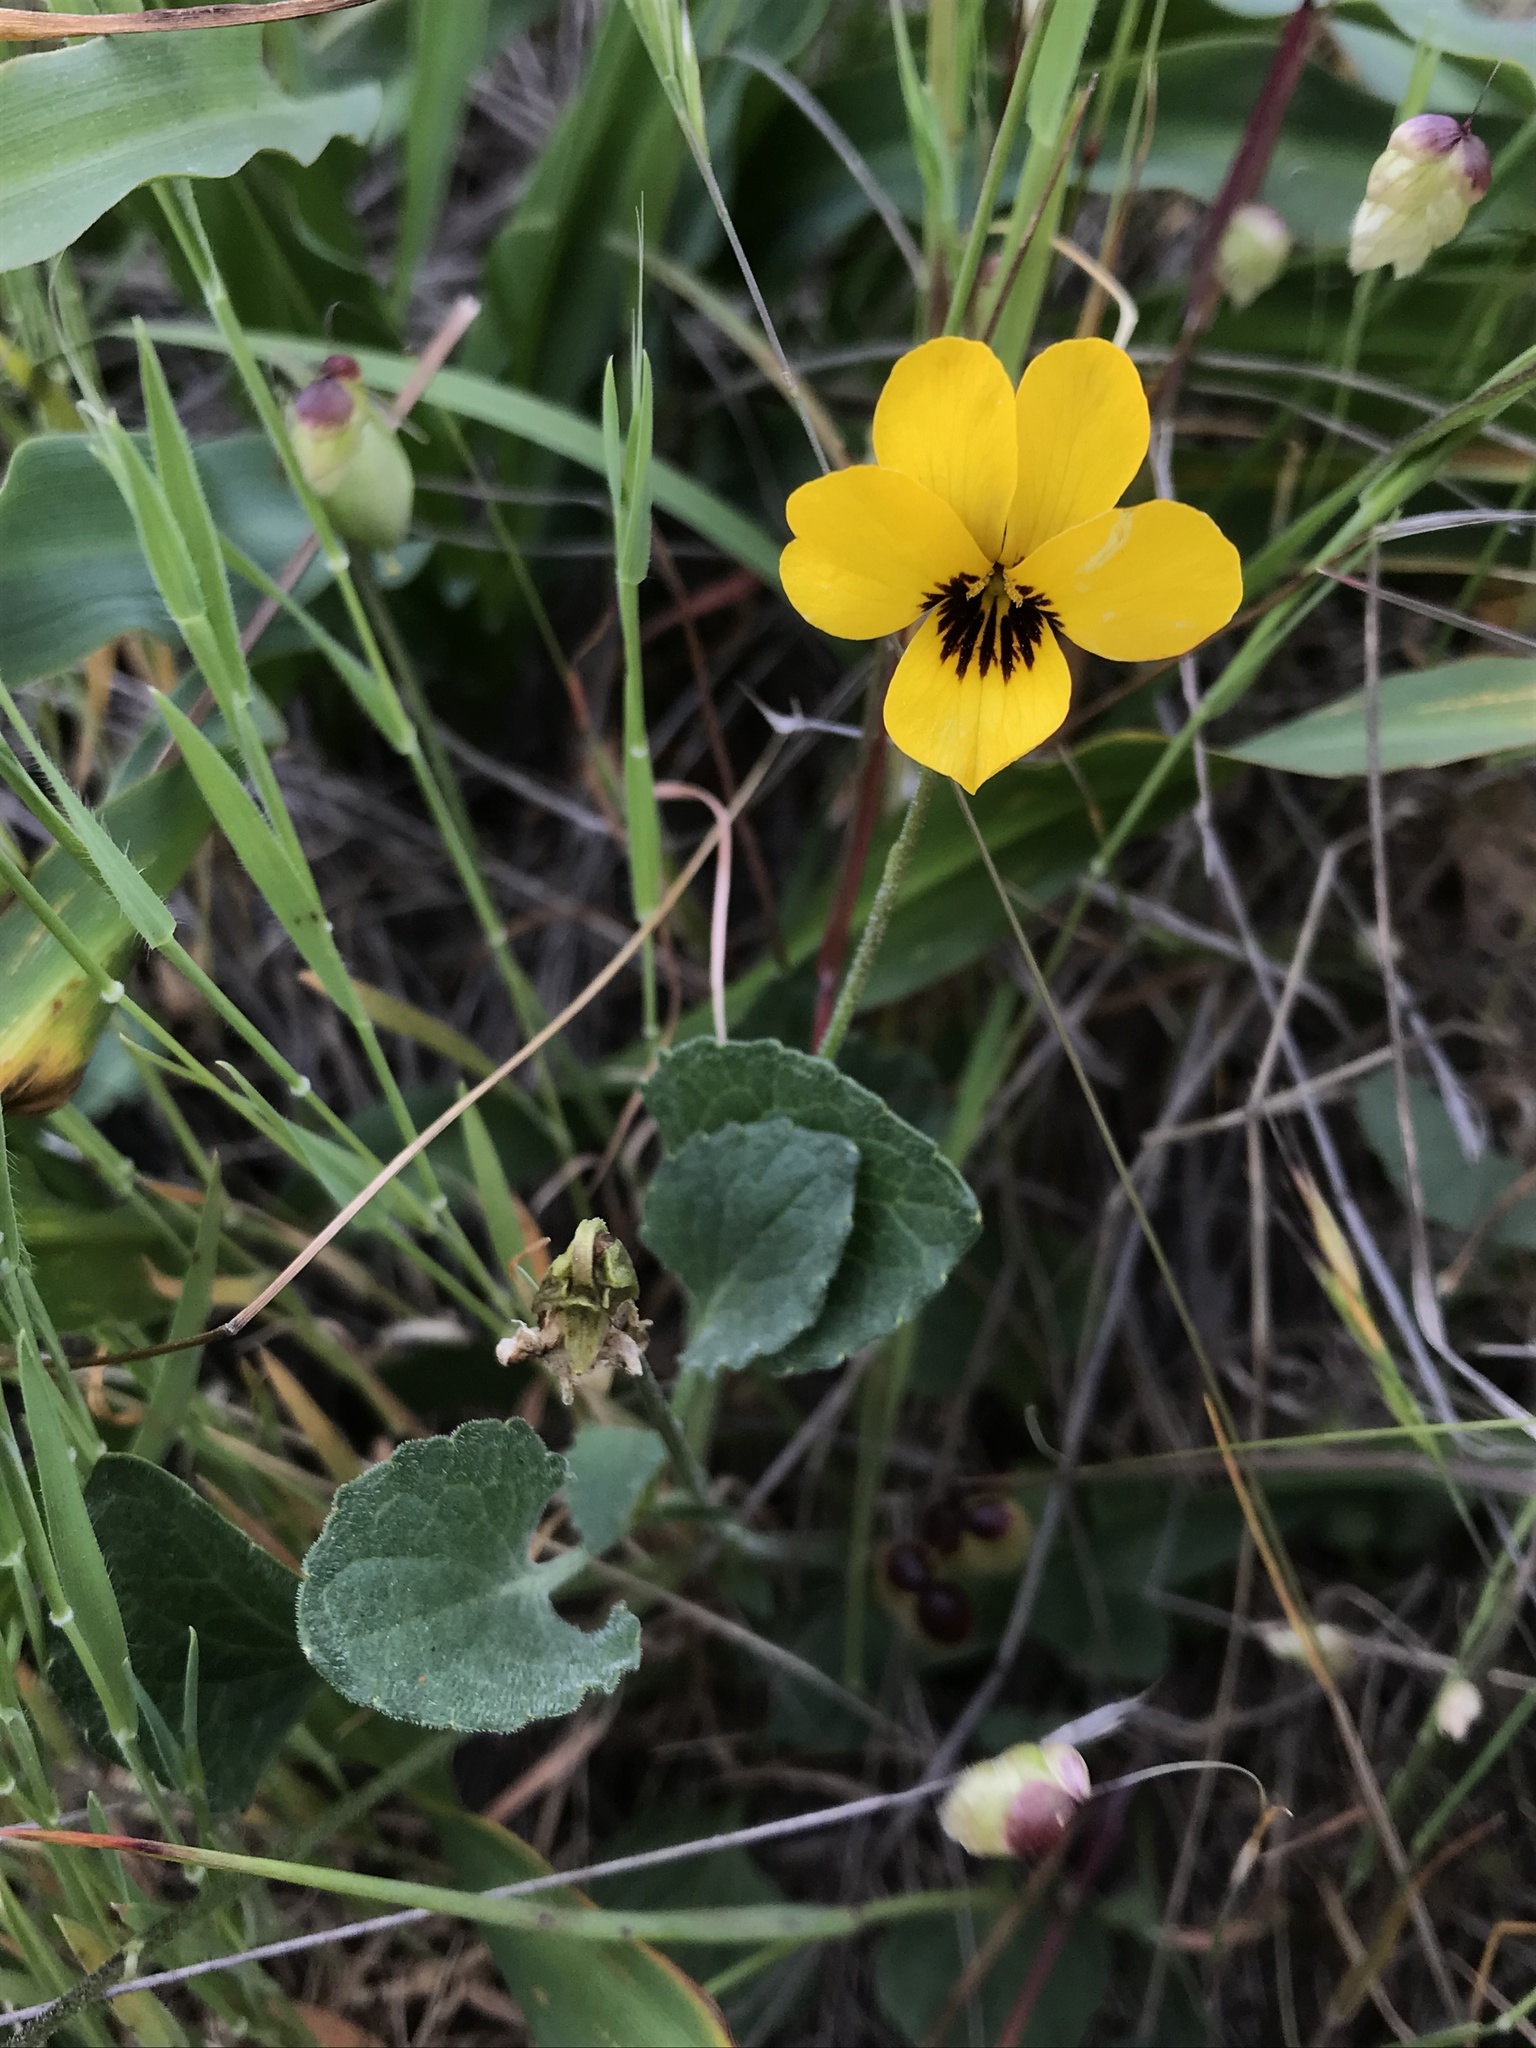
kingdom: Plantae
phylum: Tracheophyta
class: Magnoliopsida
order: Malpighiales
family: Violaceae
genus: Viola
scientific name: Viola pedunculata
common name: California golden violet
